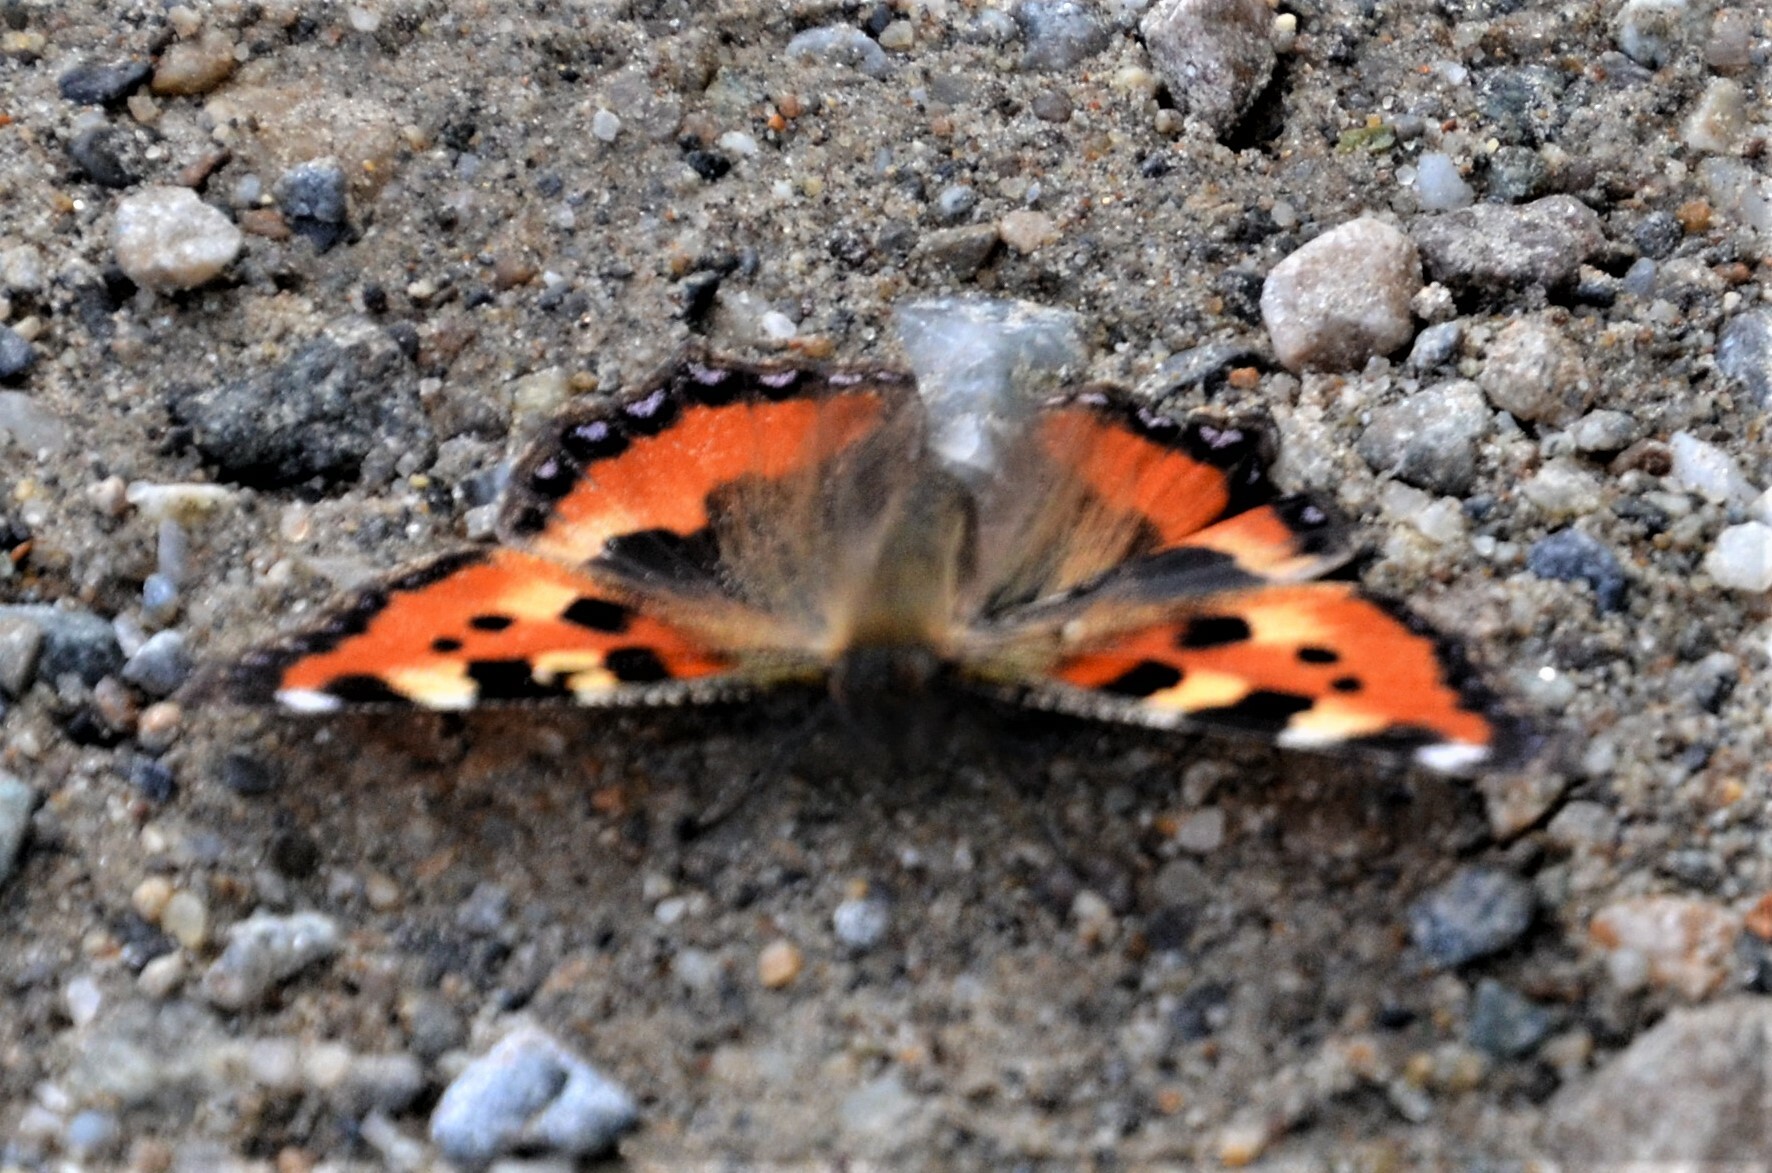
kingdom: Animalia
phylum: Arthropoda
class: Insecta
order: Lepidoptera
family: Nymphalidae
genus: Aglais
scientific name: Aglais urticae
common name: Small tortoiseshell
